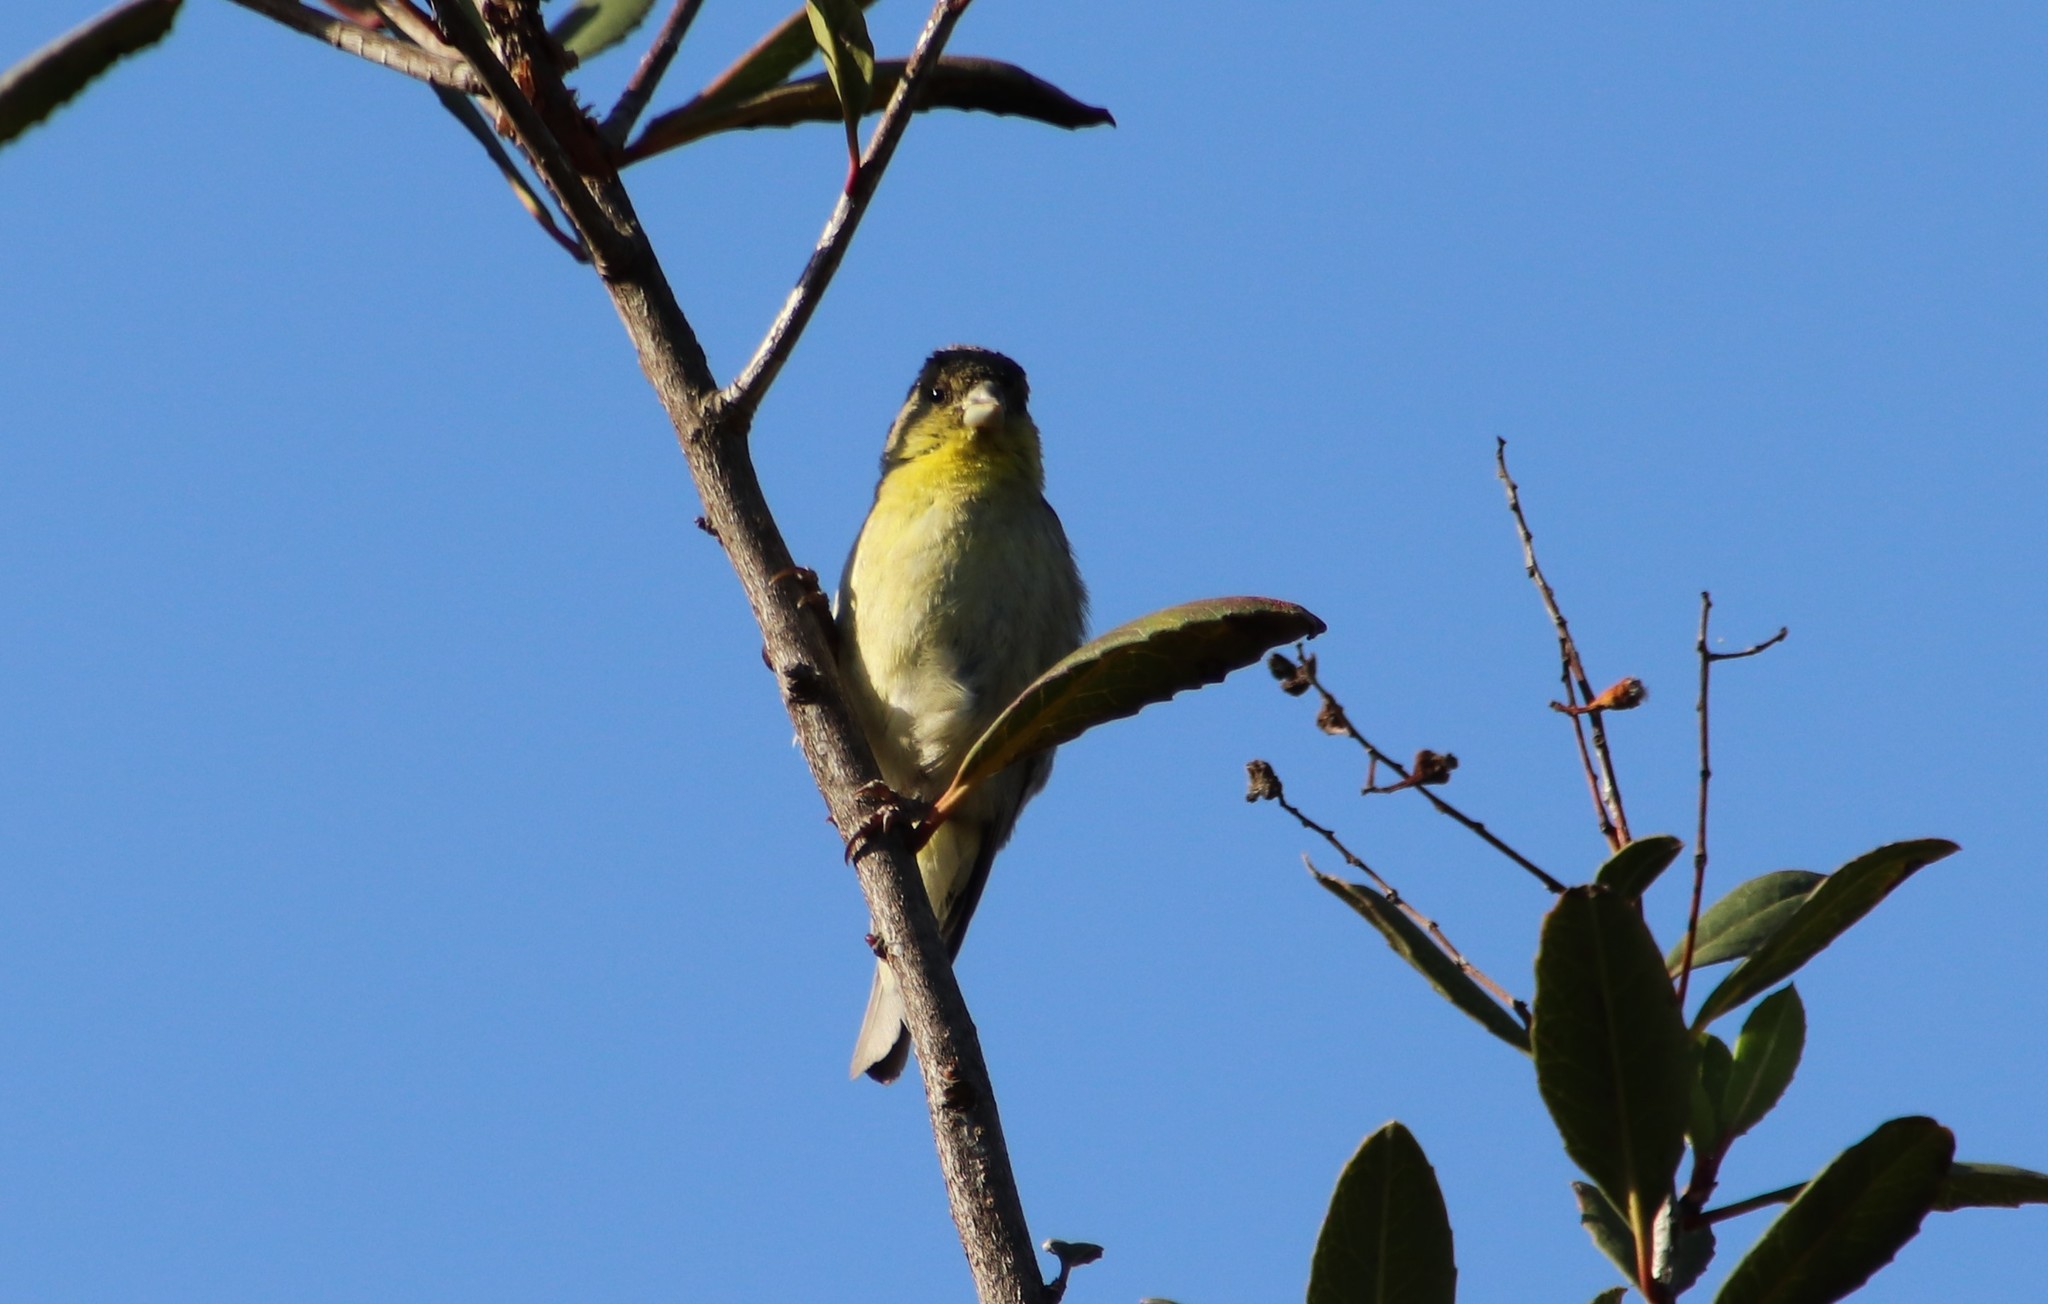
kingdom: Animalia
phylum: Chordata
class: Aves
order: Passeriformes
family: Fringillidae
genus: Spinus
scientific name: Spinus psaltria
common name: Lesser goldfinch
